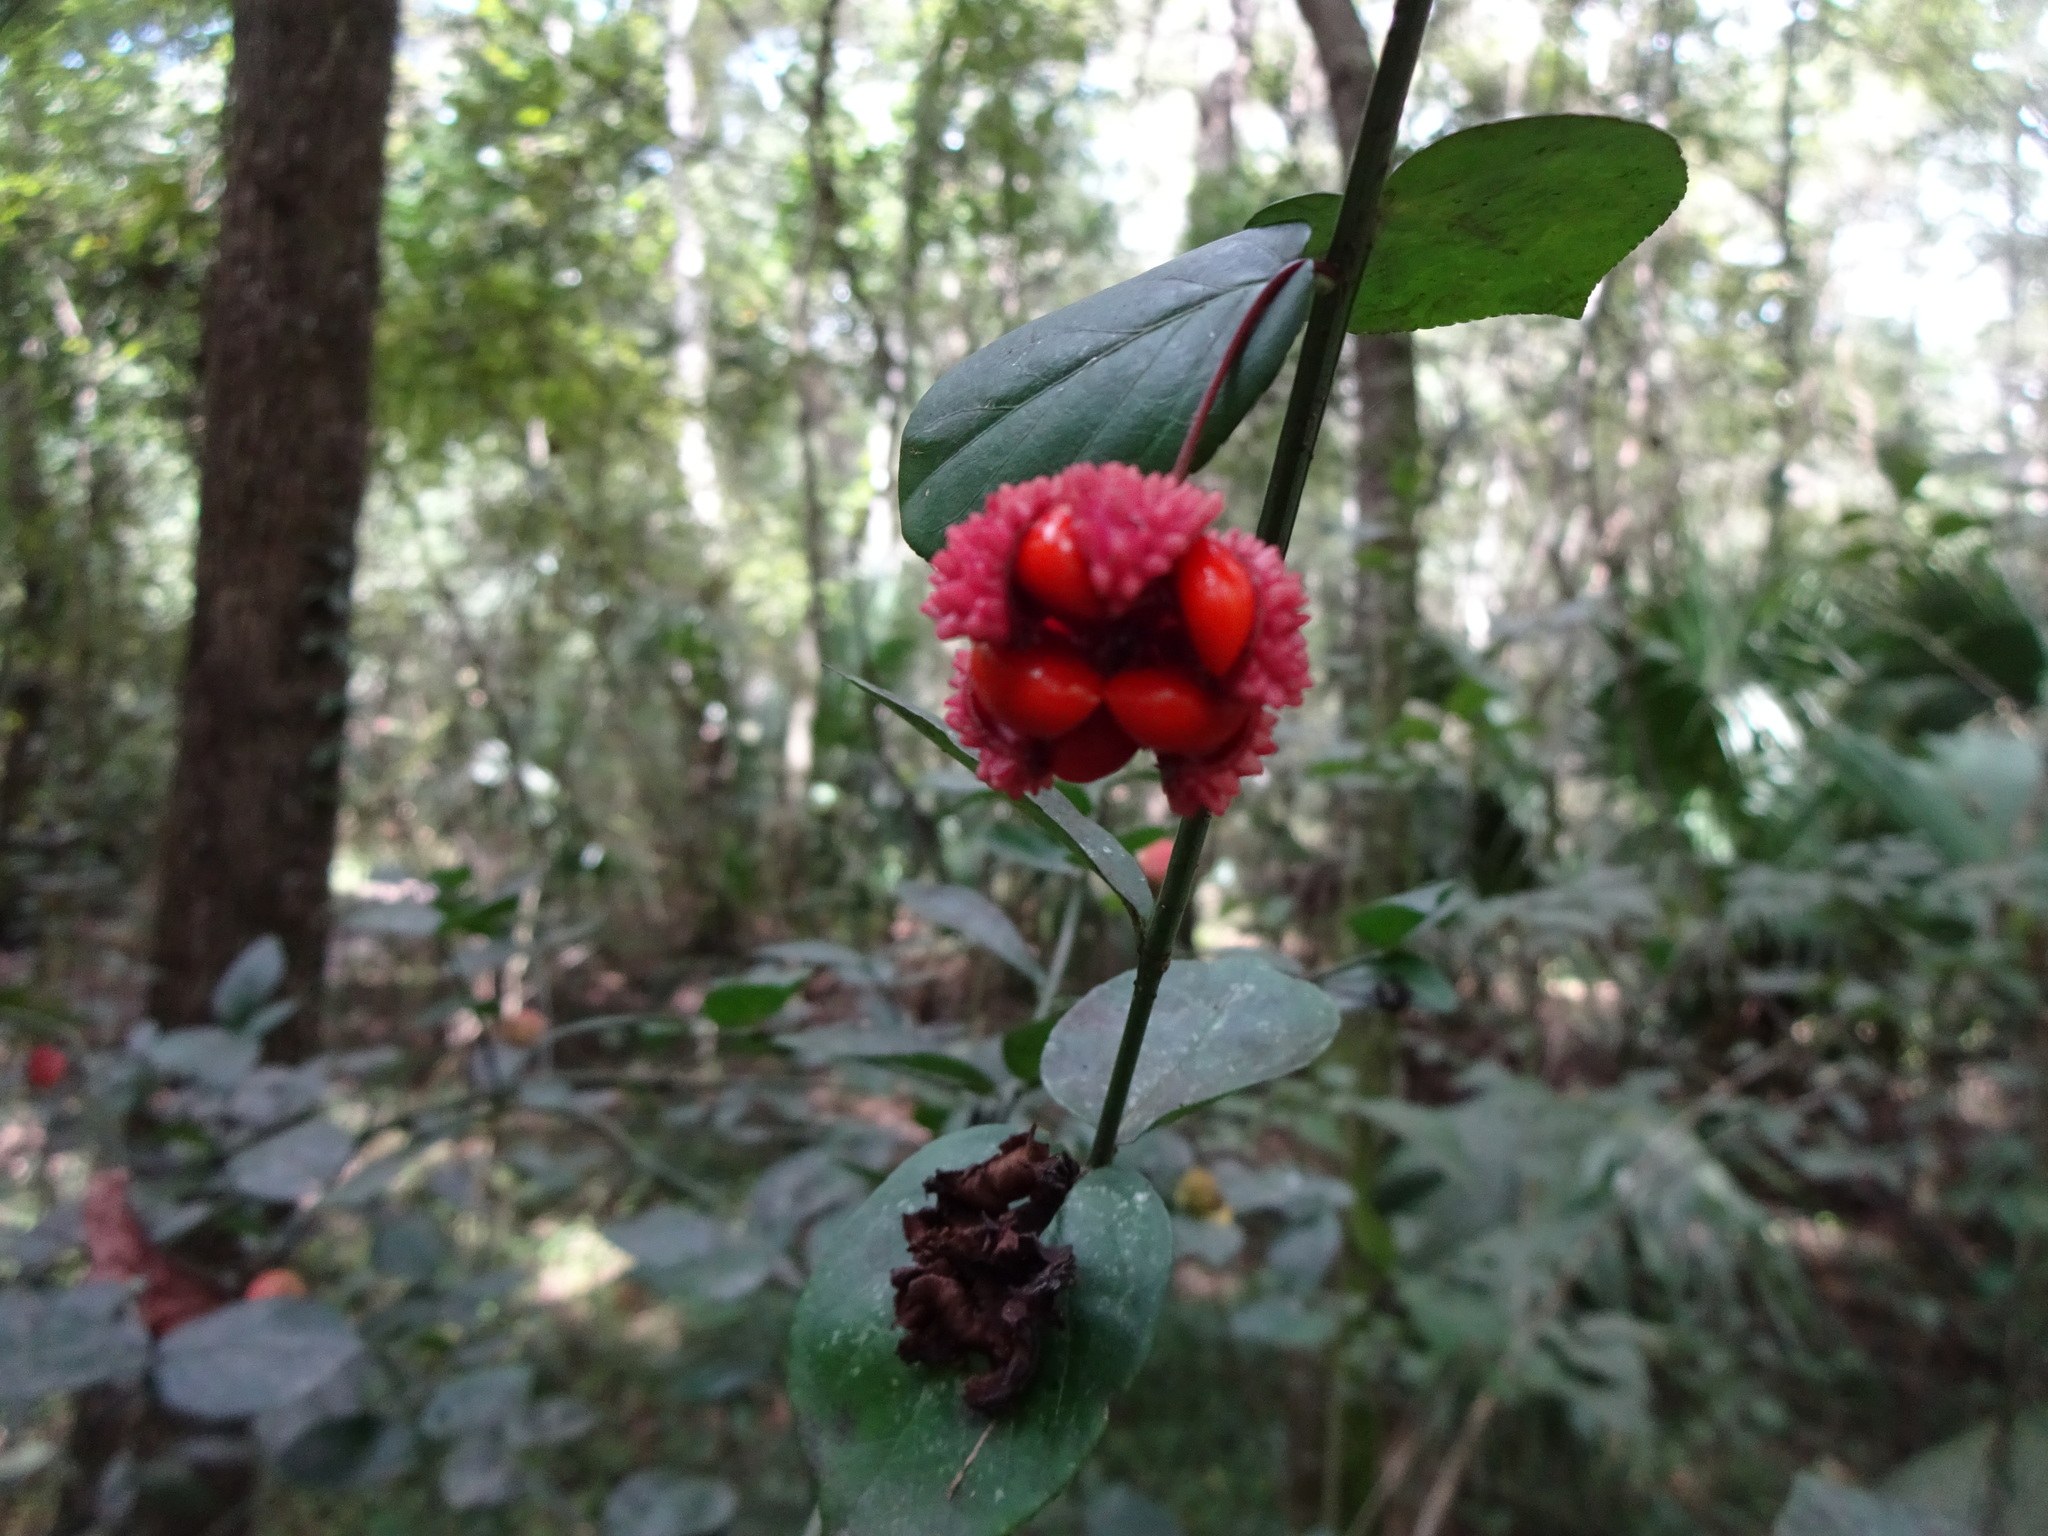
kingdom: Plantae
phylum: Tracheophyta
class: Magnoliopsida
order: Celastrales
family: Celastraceae
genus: Euonymus
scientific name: Euonymus americanus
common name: Bursting-heart
